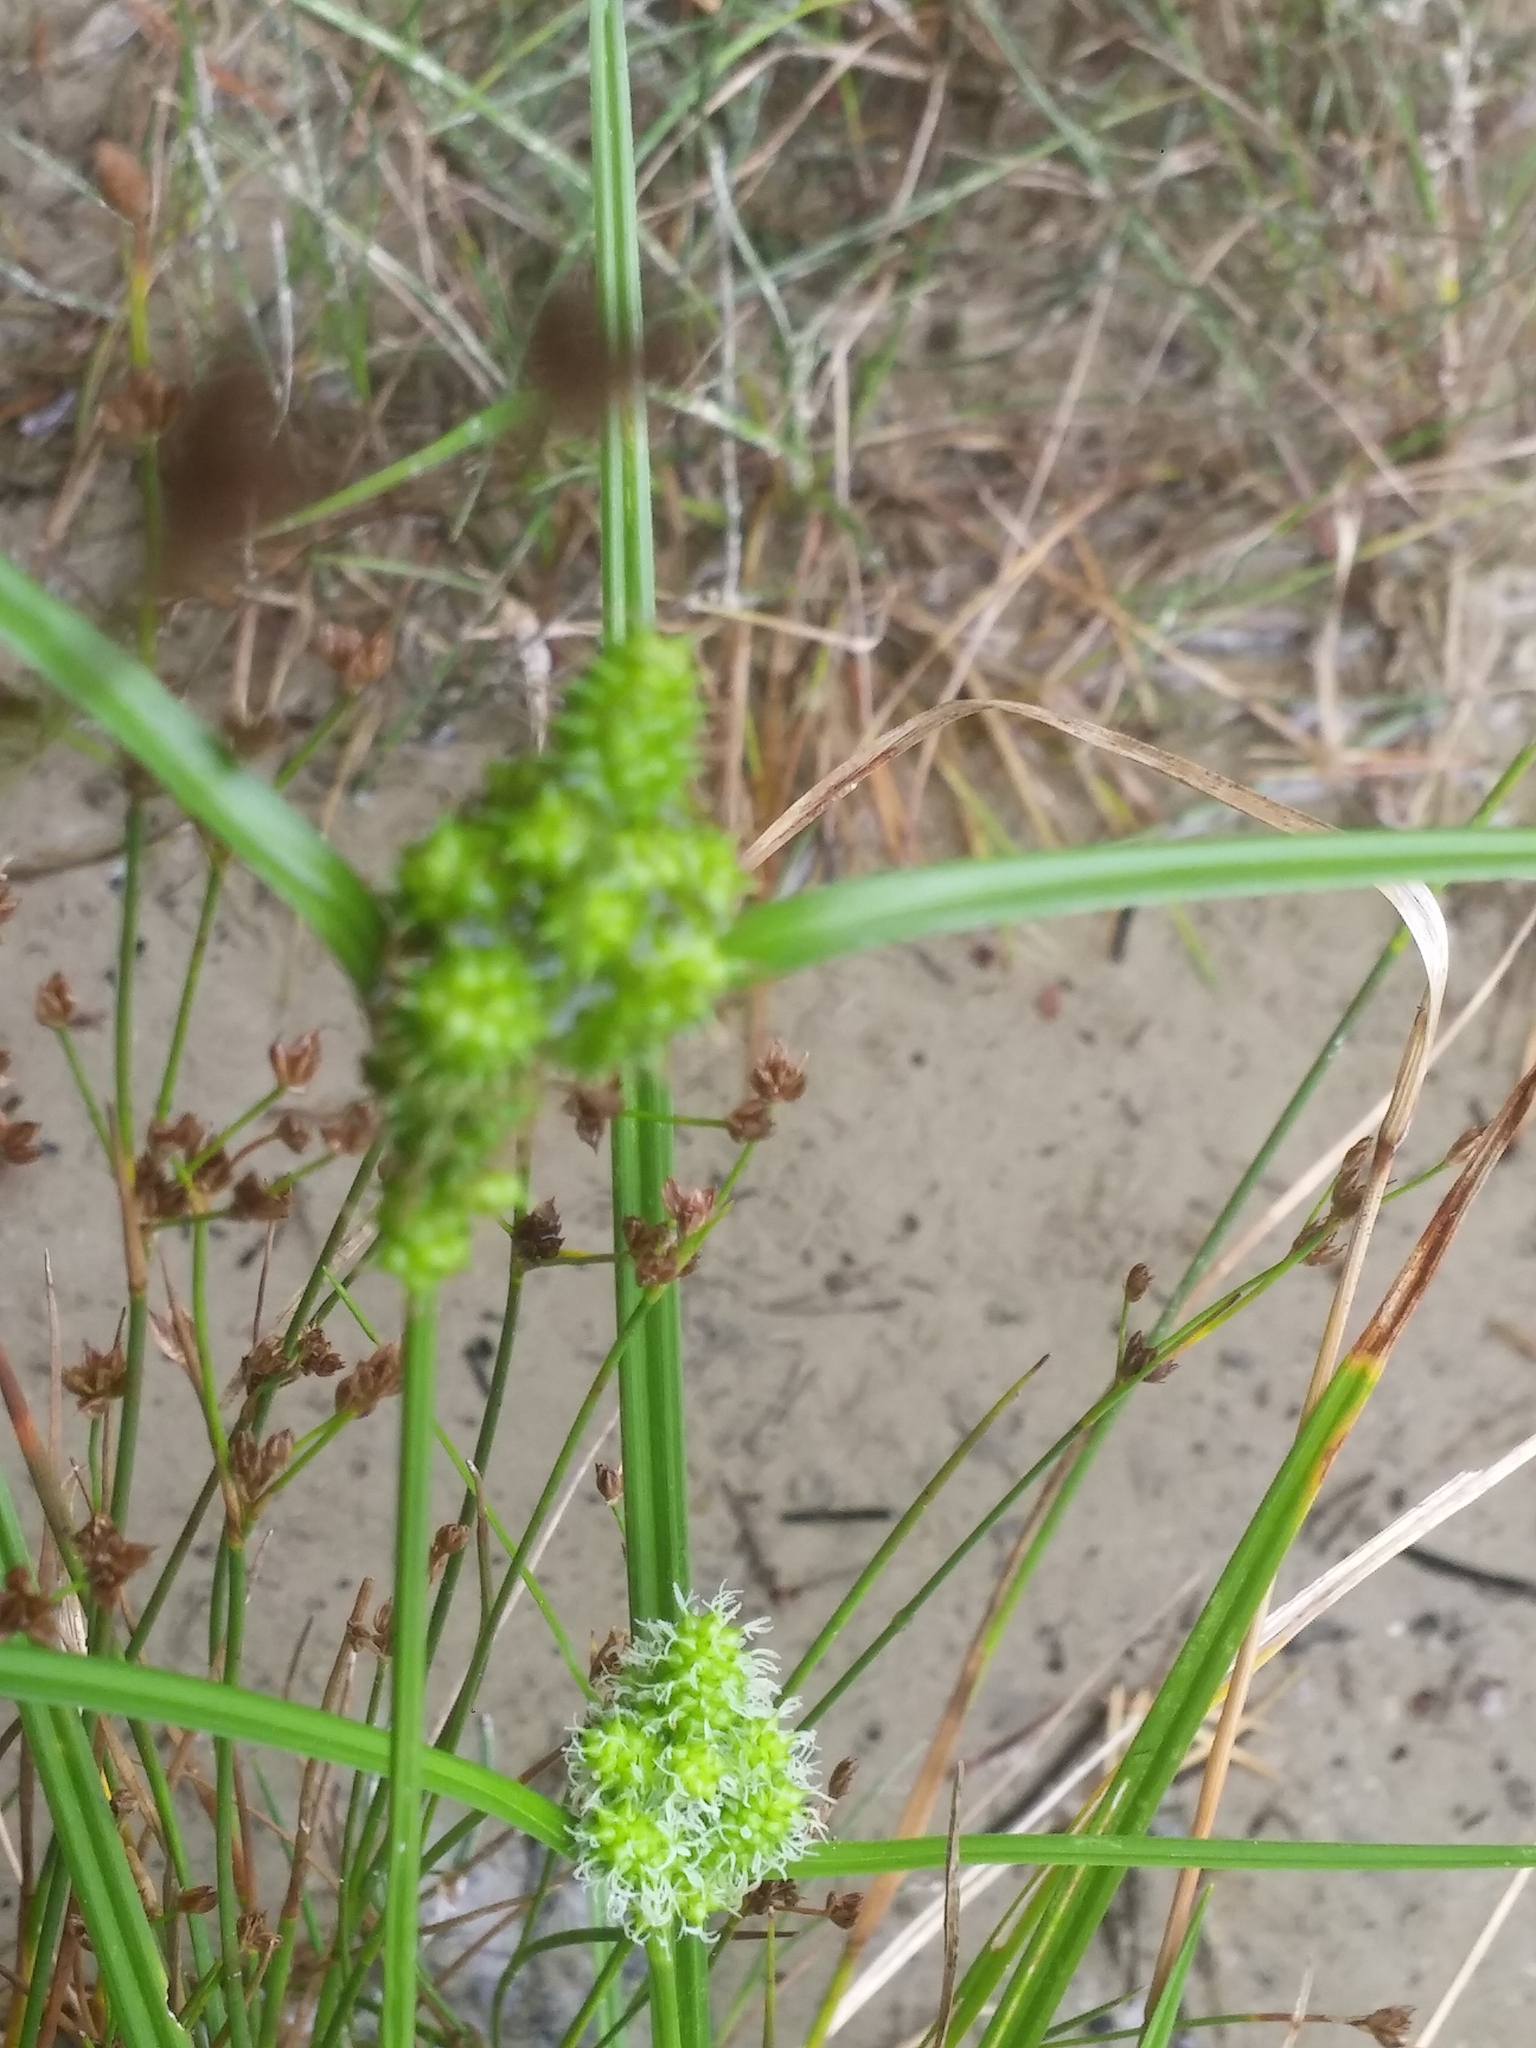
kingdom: Plantae
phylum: Tracheophyta
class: Liliopsida
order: Poales
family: Cyperaceae
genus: Carex
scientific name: Carex
